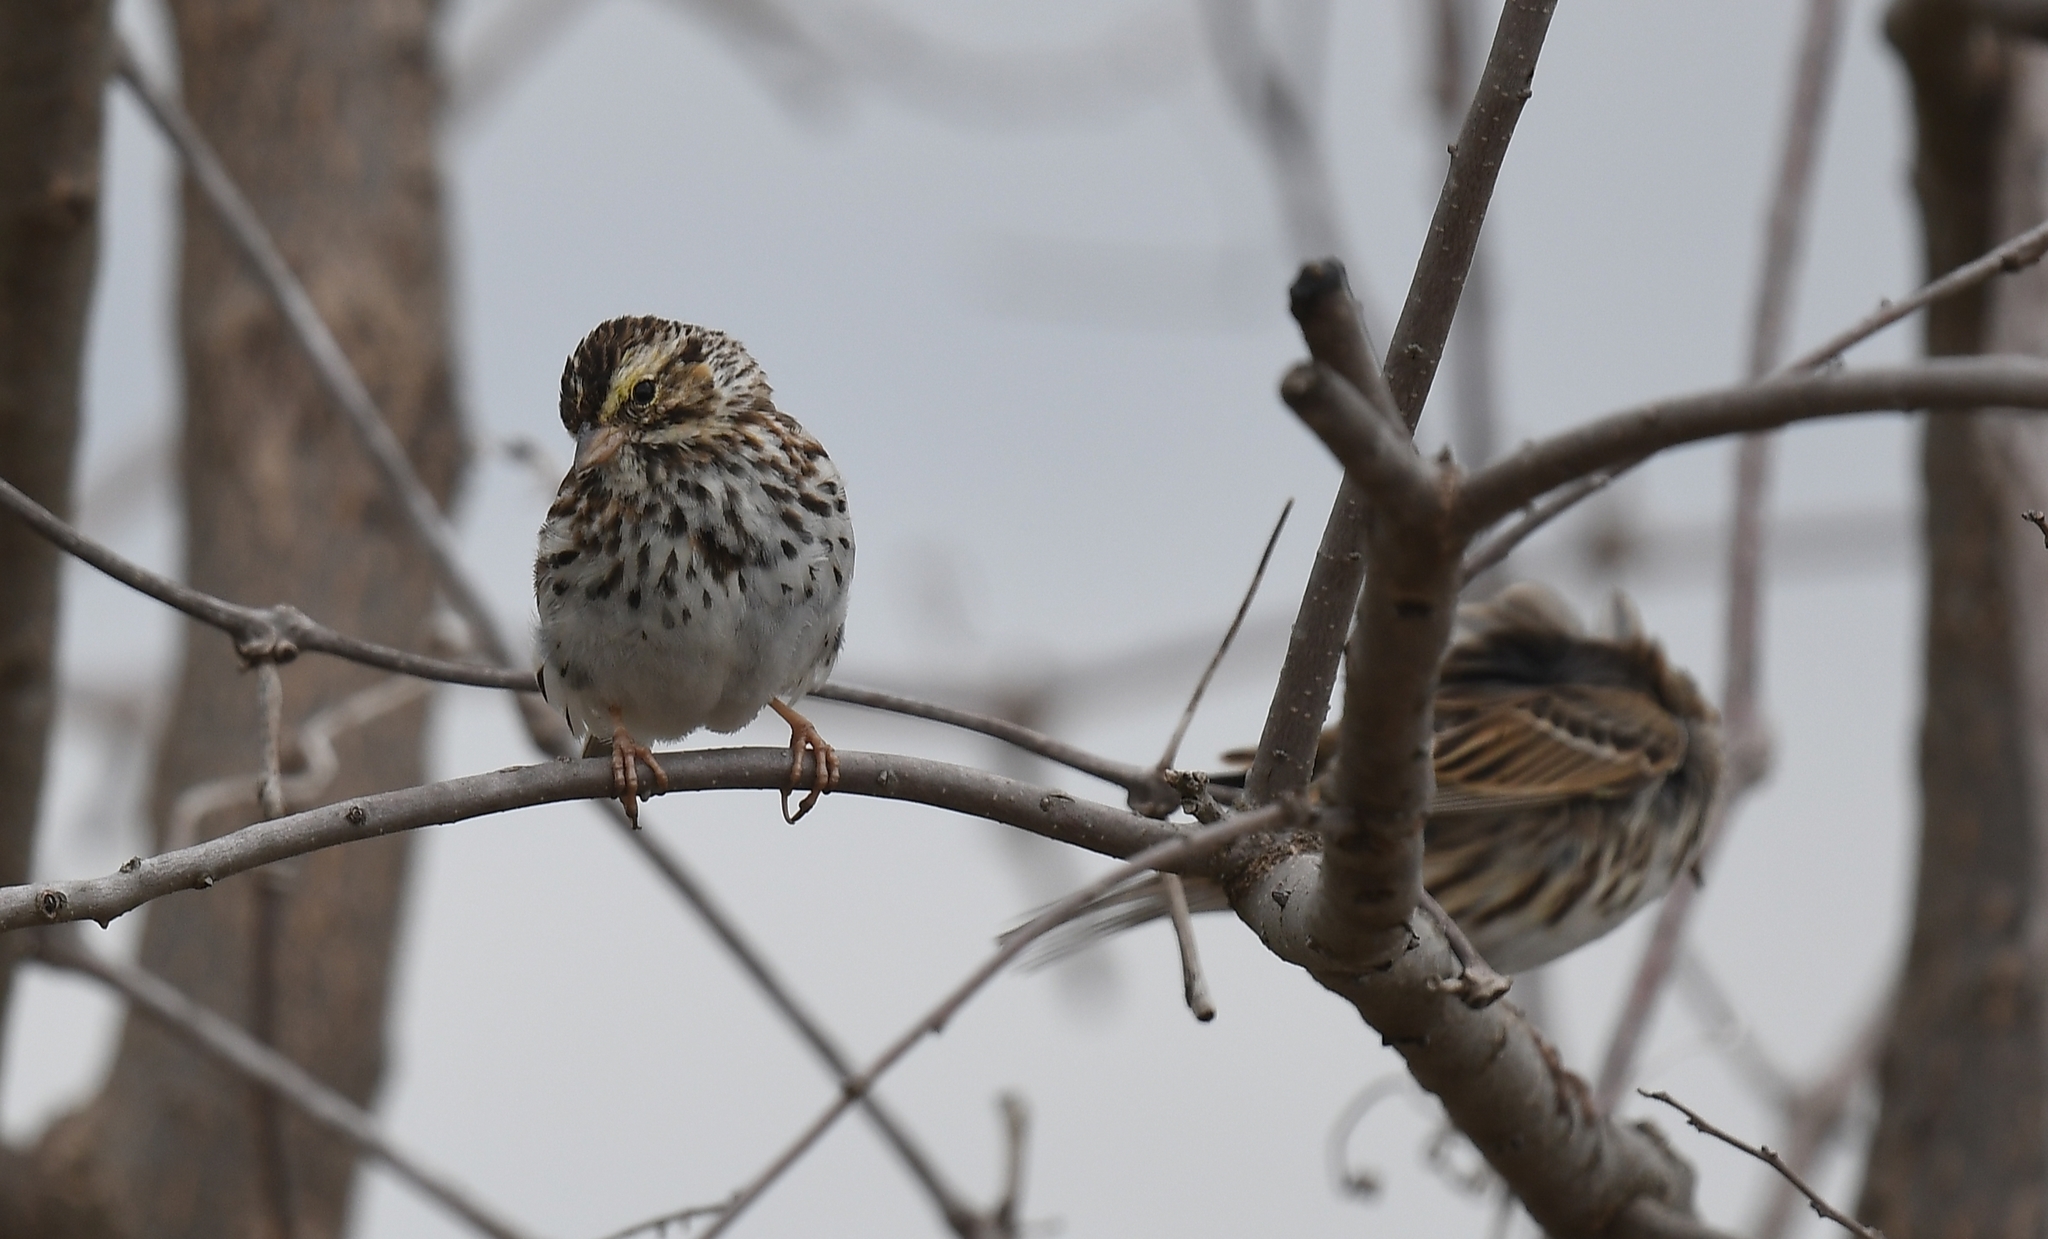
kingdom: Animalia
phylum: Chordata
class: Aves
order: Passeriformes
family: Passerellidae
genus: Passerculus
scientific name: Passerculus sandwichensis
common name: Savannah sparrow
